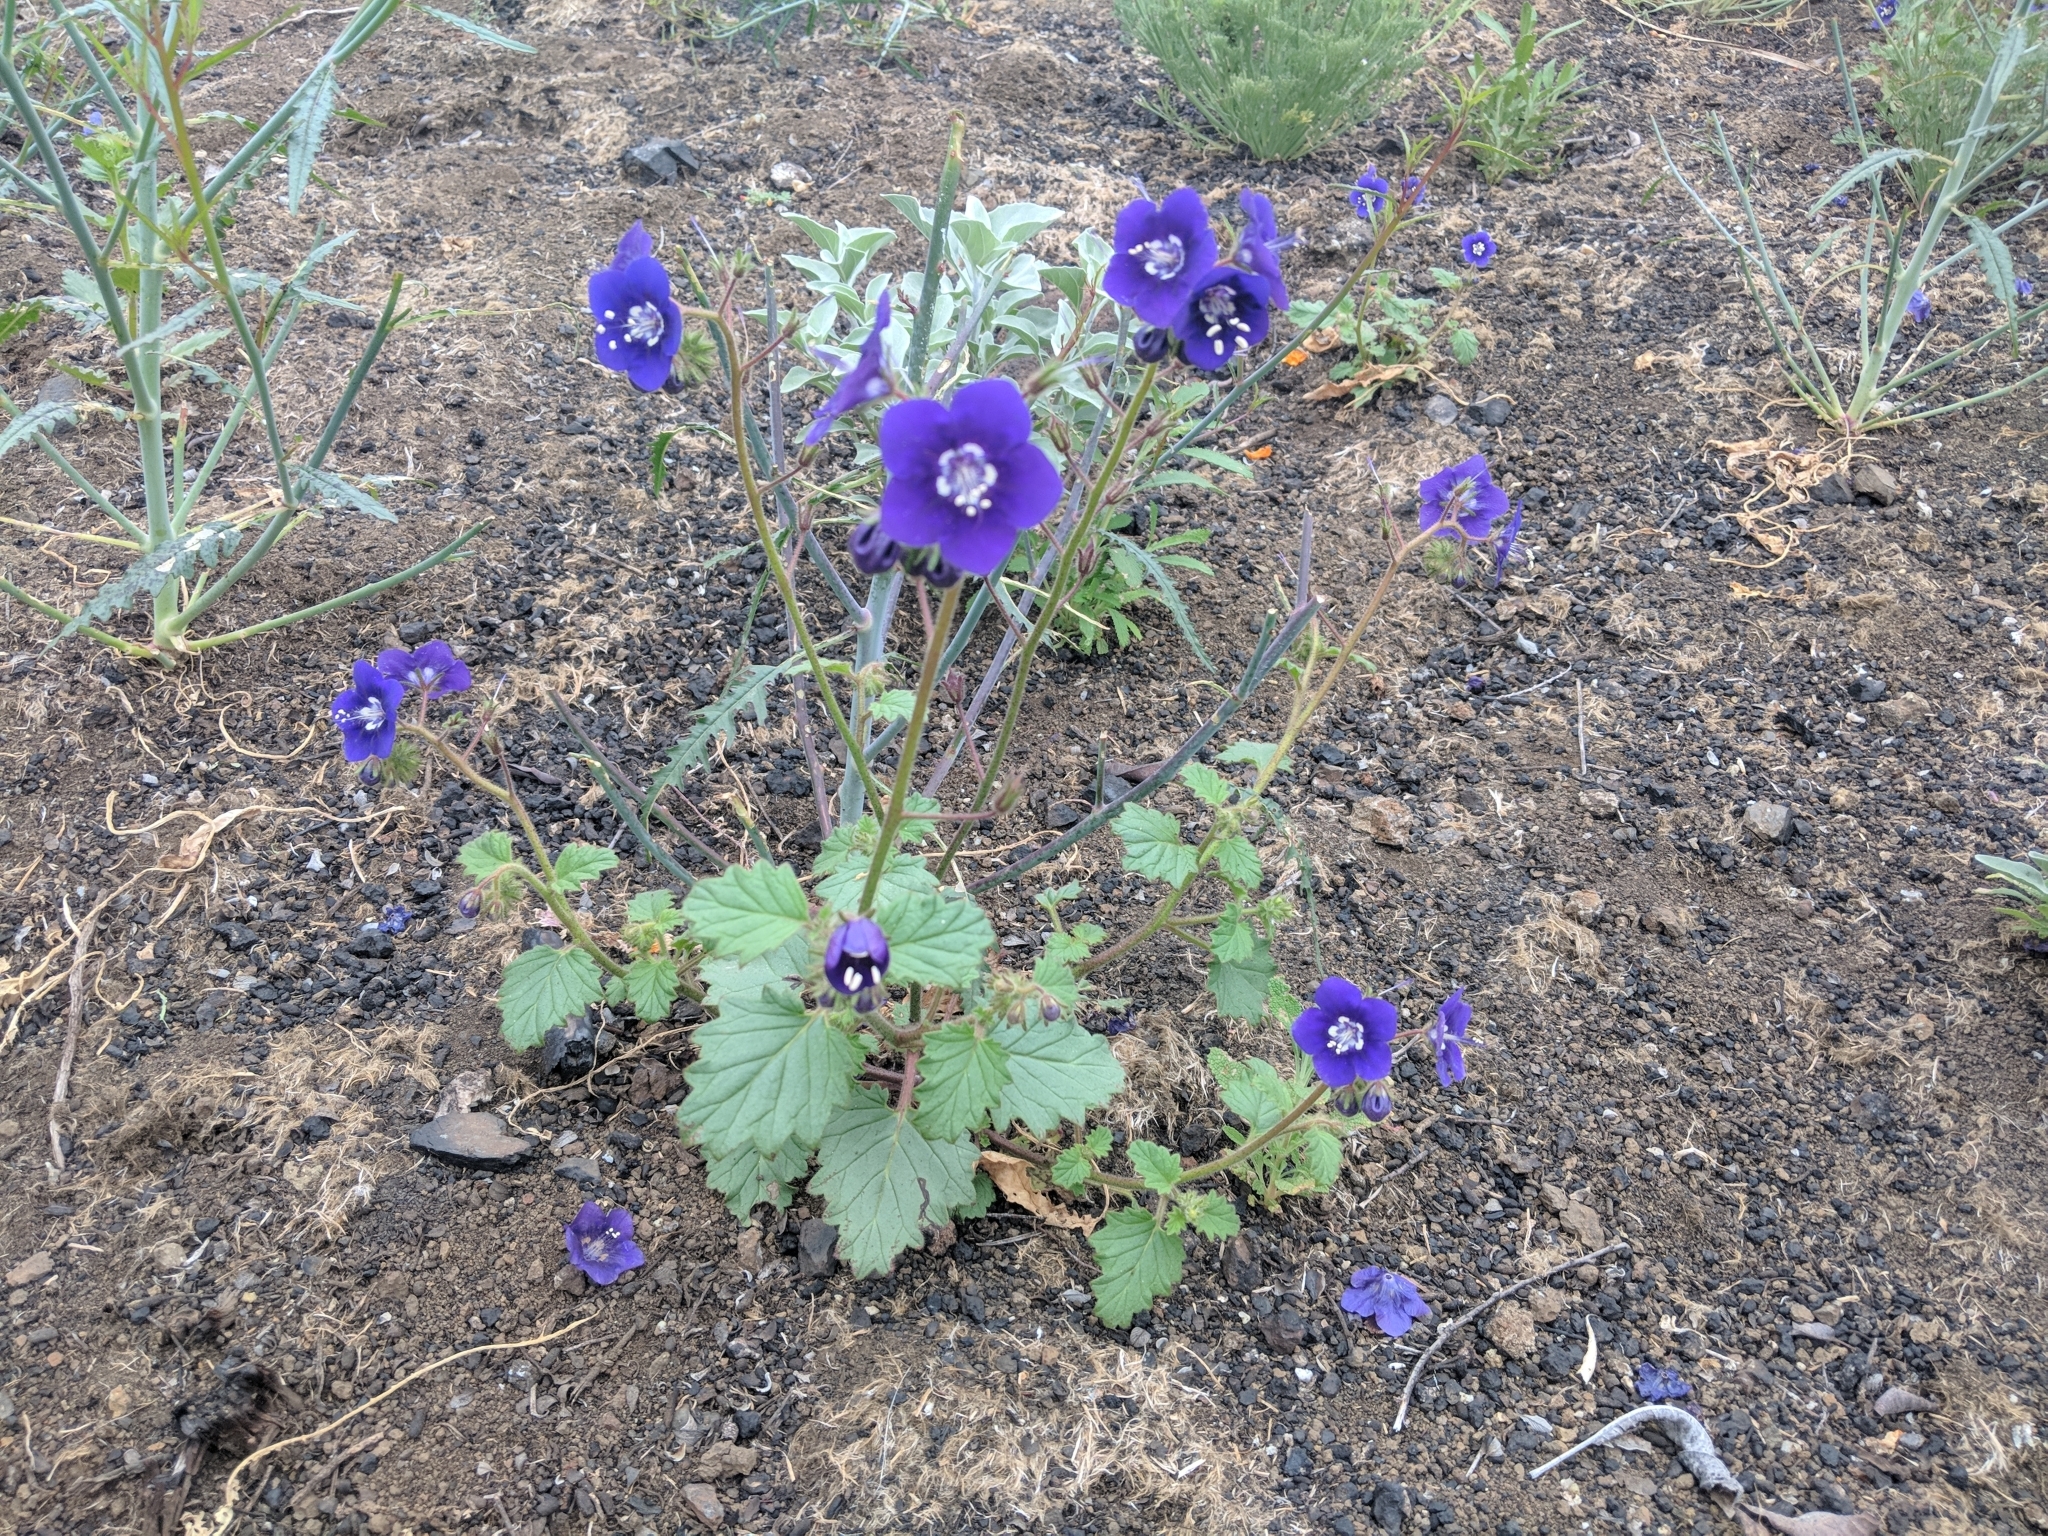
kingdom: Plantae
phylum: Tracheophyta
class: Magnoliopsida
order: Boraginales
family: Hydrophyllaceae
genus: Phacelia
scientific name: Phacelia parryi
